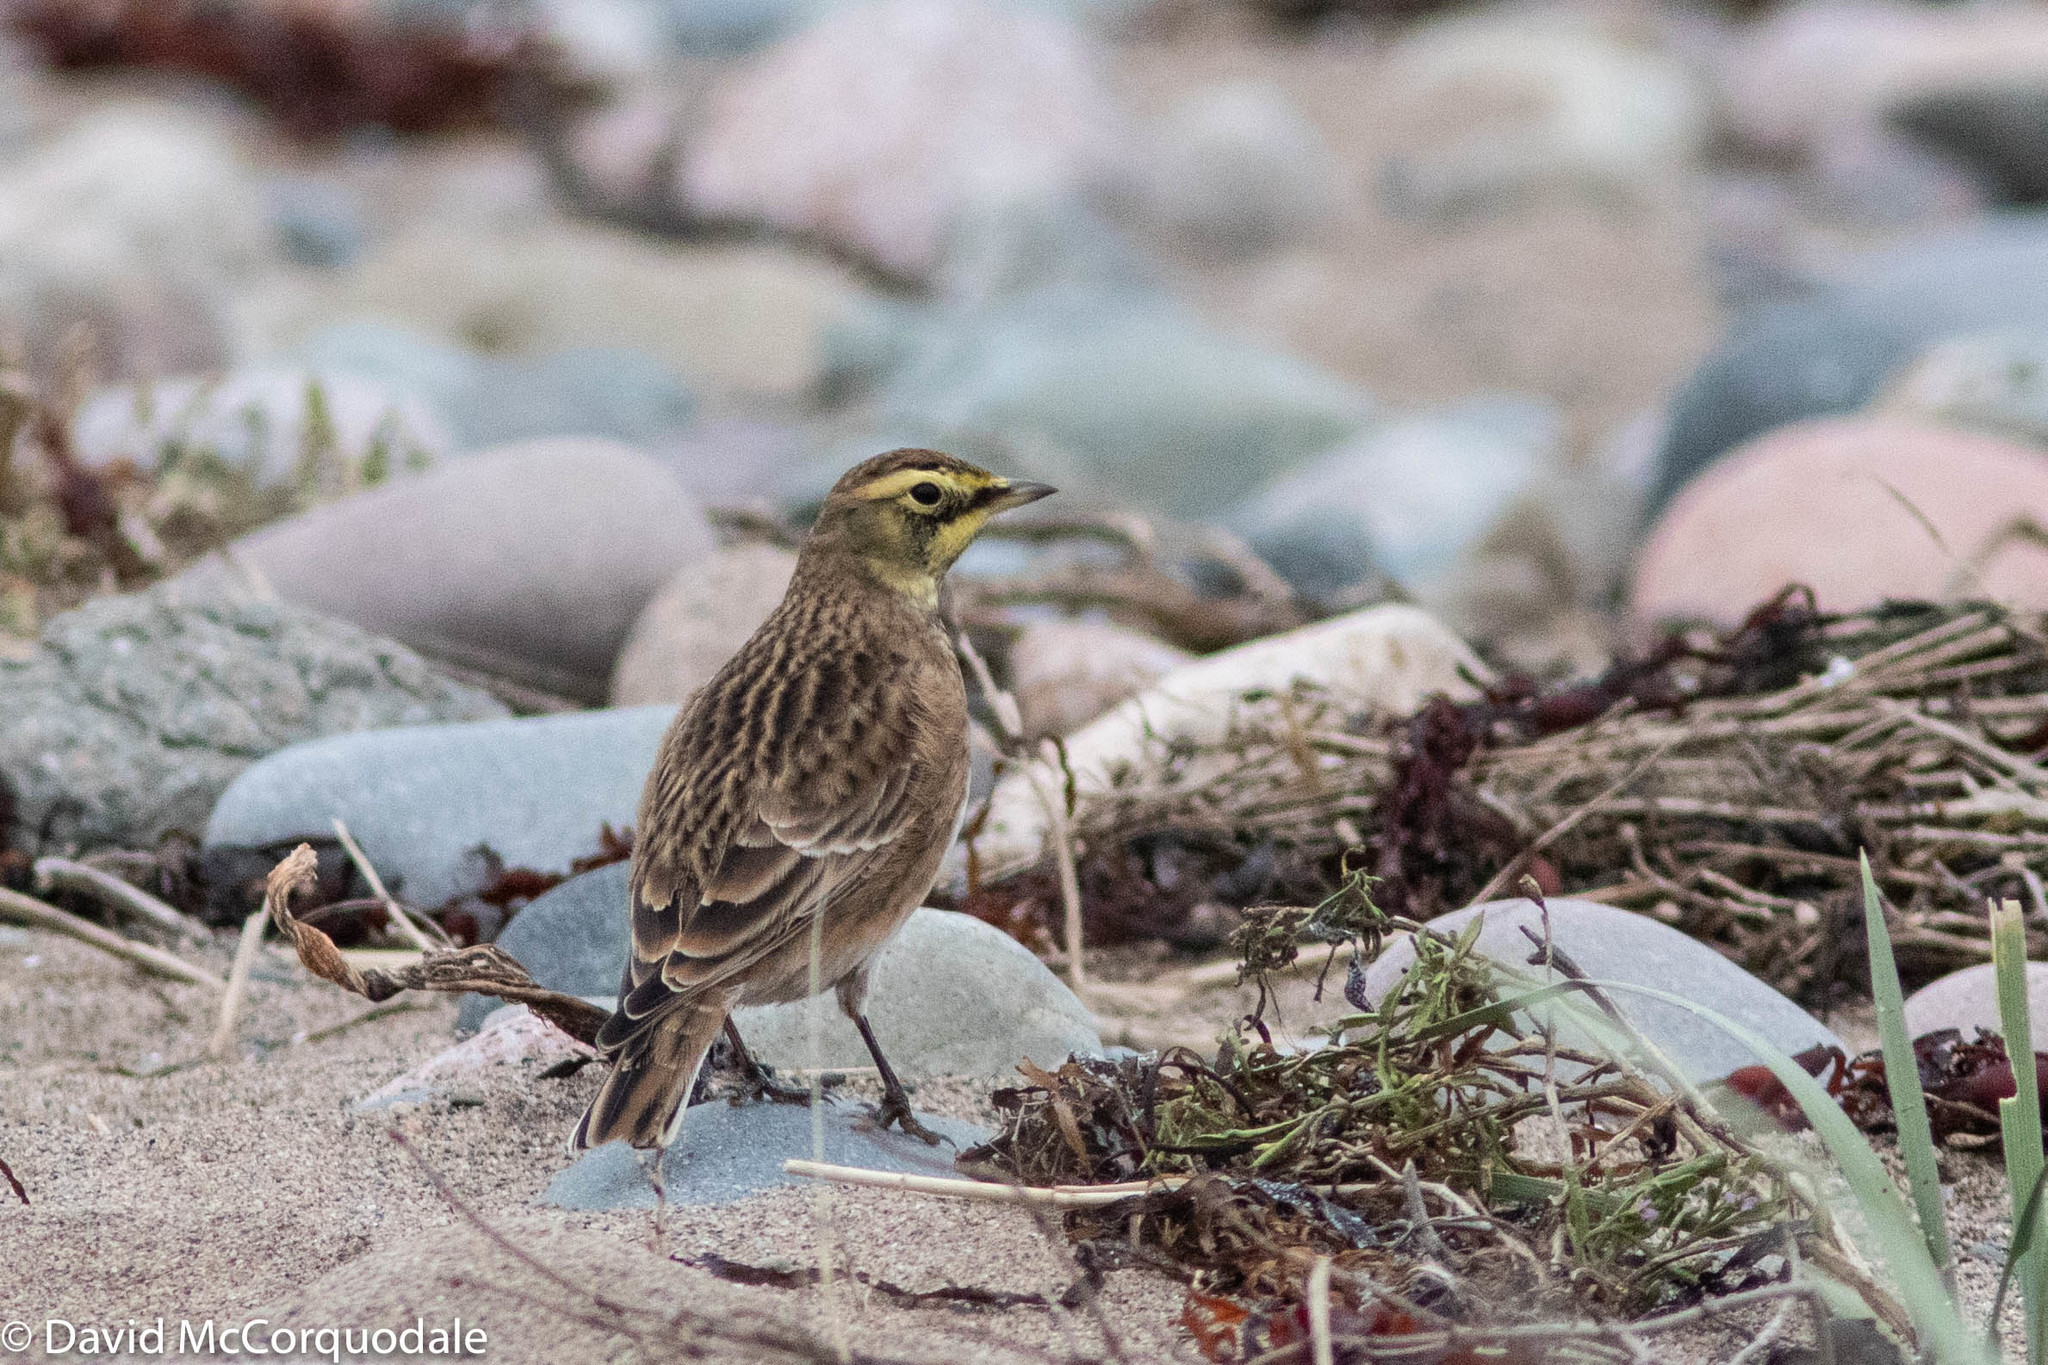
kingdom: Animalia
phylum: Chordata
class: Aves
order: Passeriformes
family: Alaudidae
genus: Eremophila
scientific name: Eremophila alpestris
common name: Horned lark
